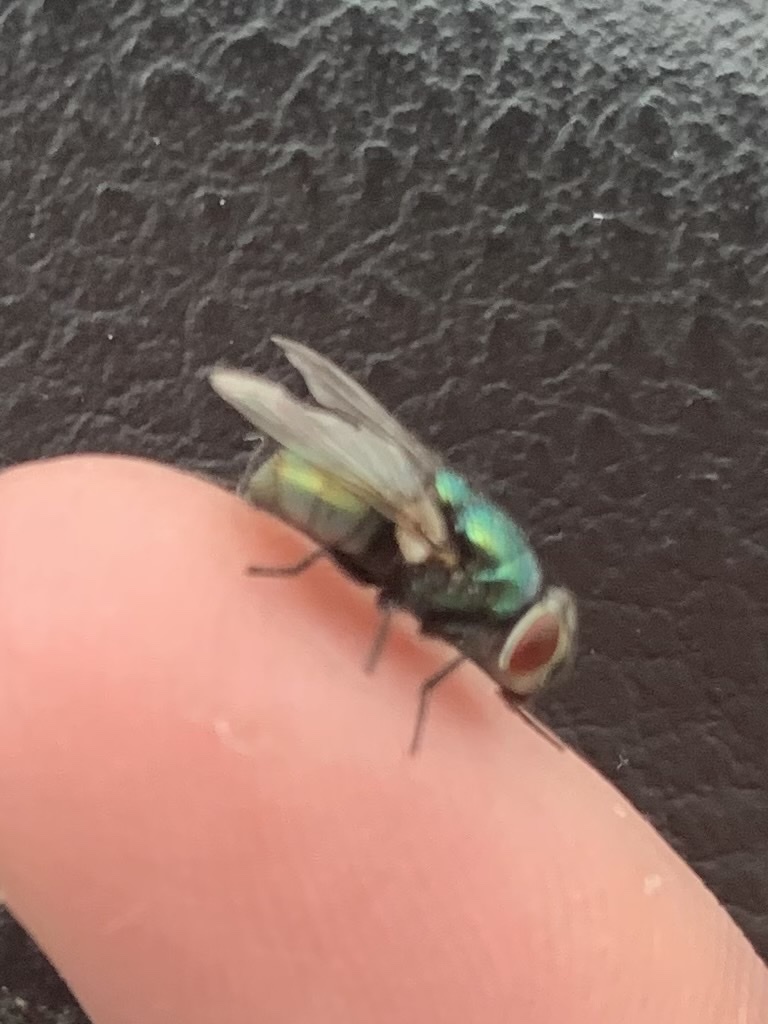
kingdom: Animalia
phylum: Arthropoda
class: Insecta
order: Diptera
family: Calliphoridae
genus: Lucilia
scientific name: Lucilia sericata
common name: Blow fly
